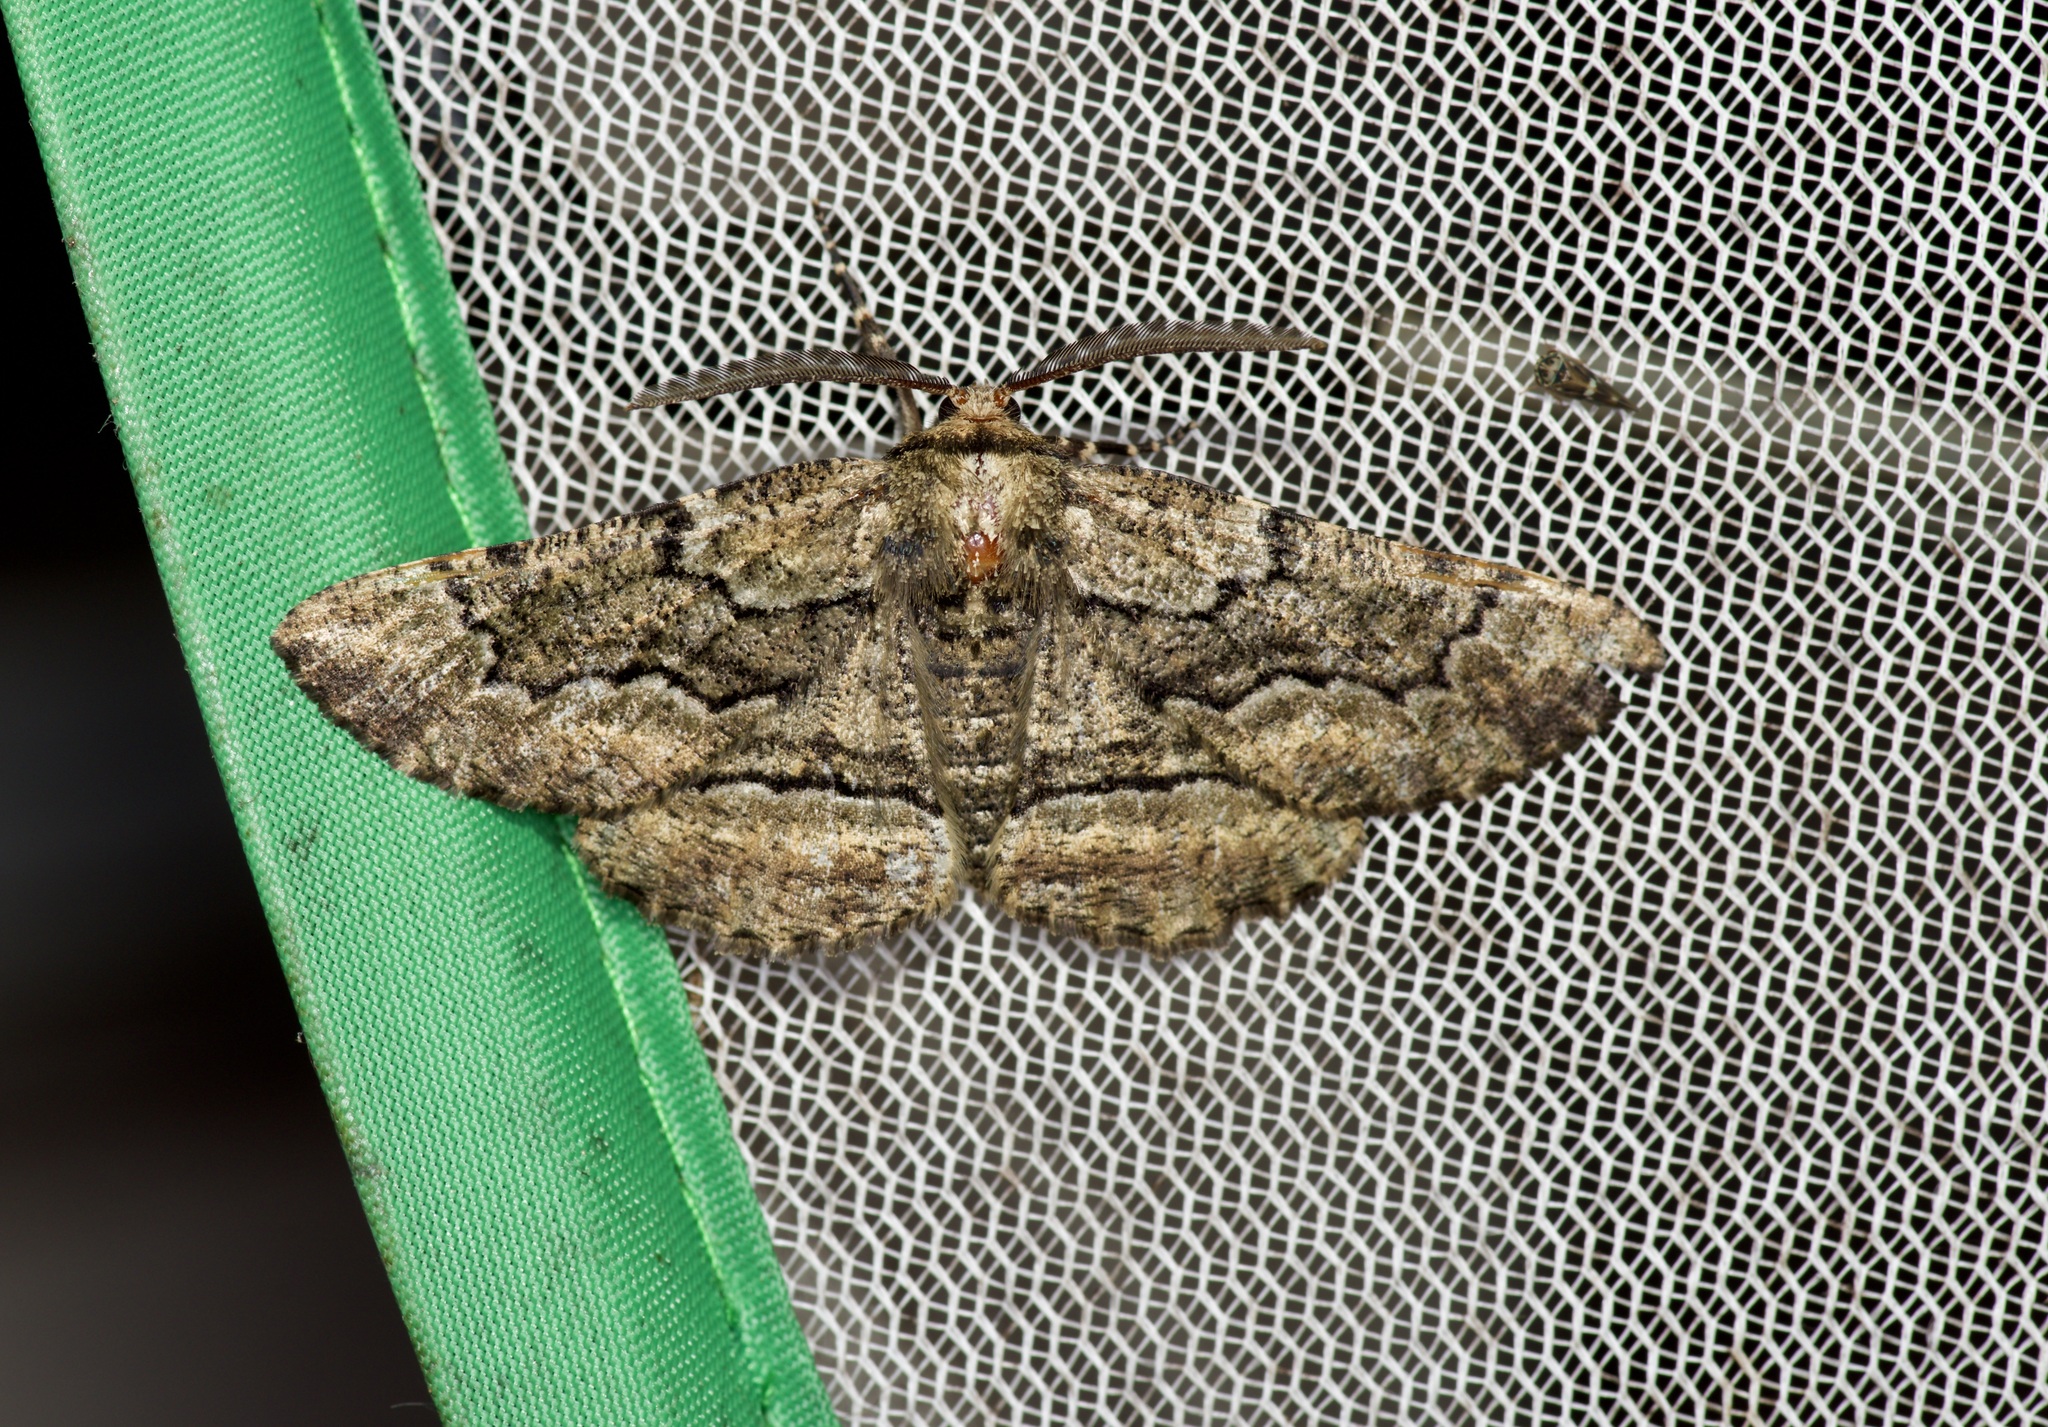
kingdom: Animalia
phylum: Arthropoda
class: Insecta
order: Lepidoptera
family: Geometridae
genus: Phaeoura
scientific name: Phaeoura quernaria
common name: Oak beauty
